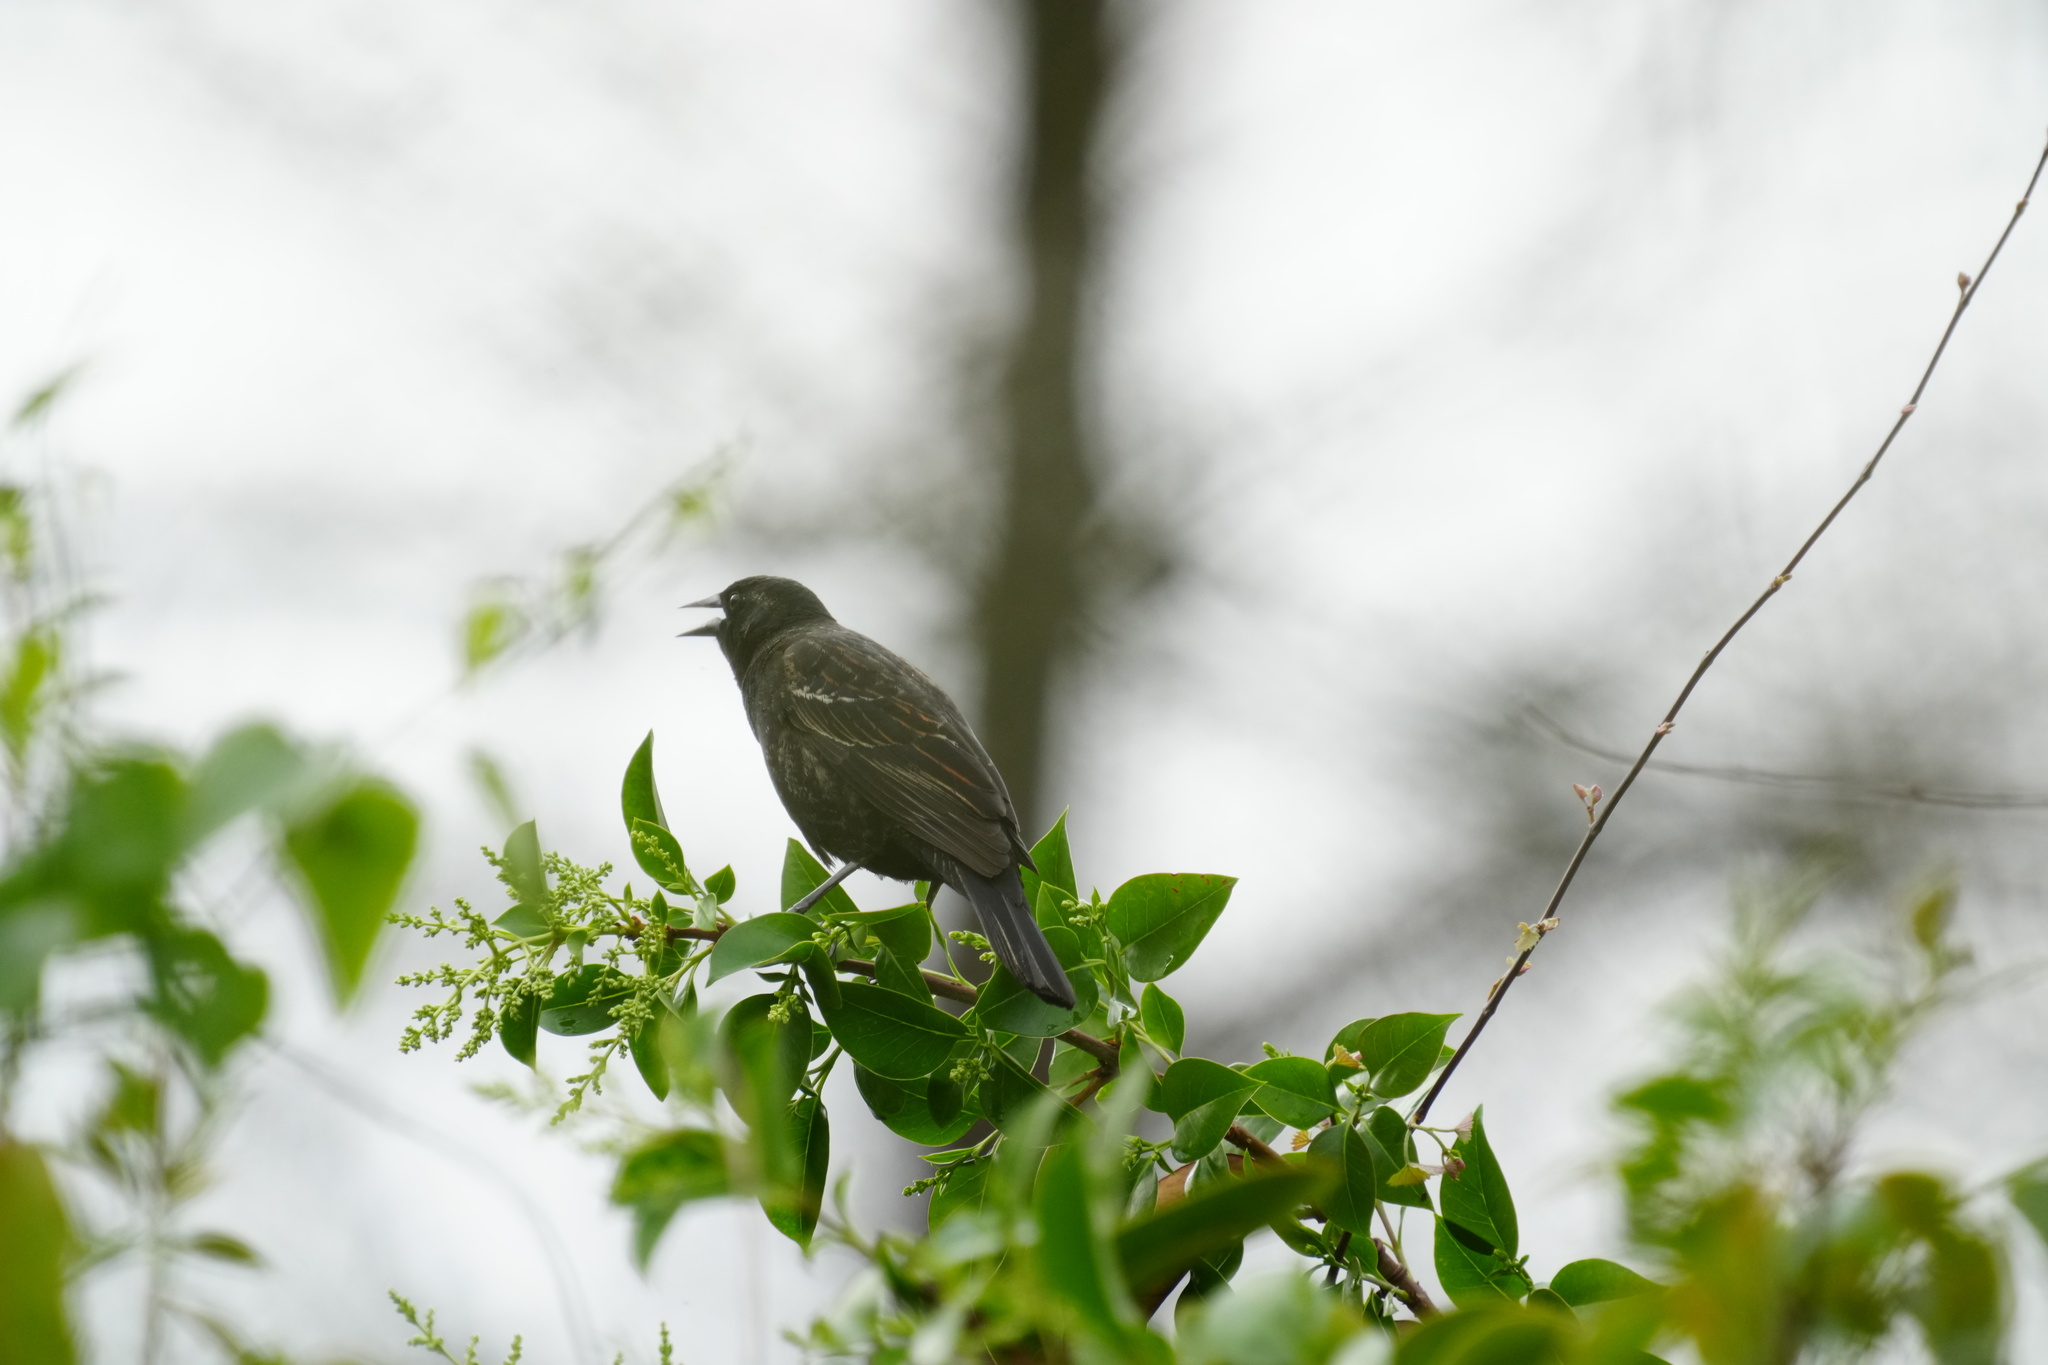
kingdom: Animalia
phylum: Chordata
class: Aves
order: Passeriformes
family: Icteridae
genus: Agelaius
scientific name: Agelaius phoeniceus
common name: Red-winged blackbird
